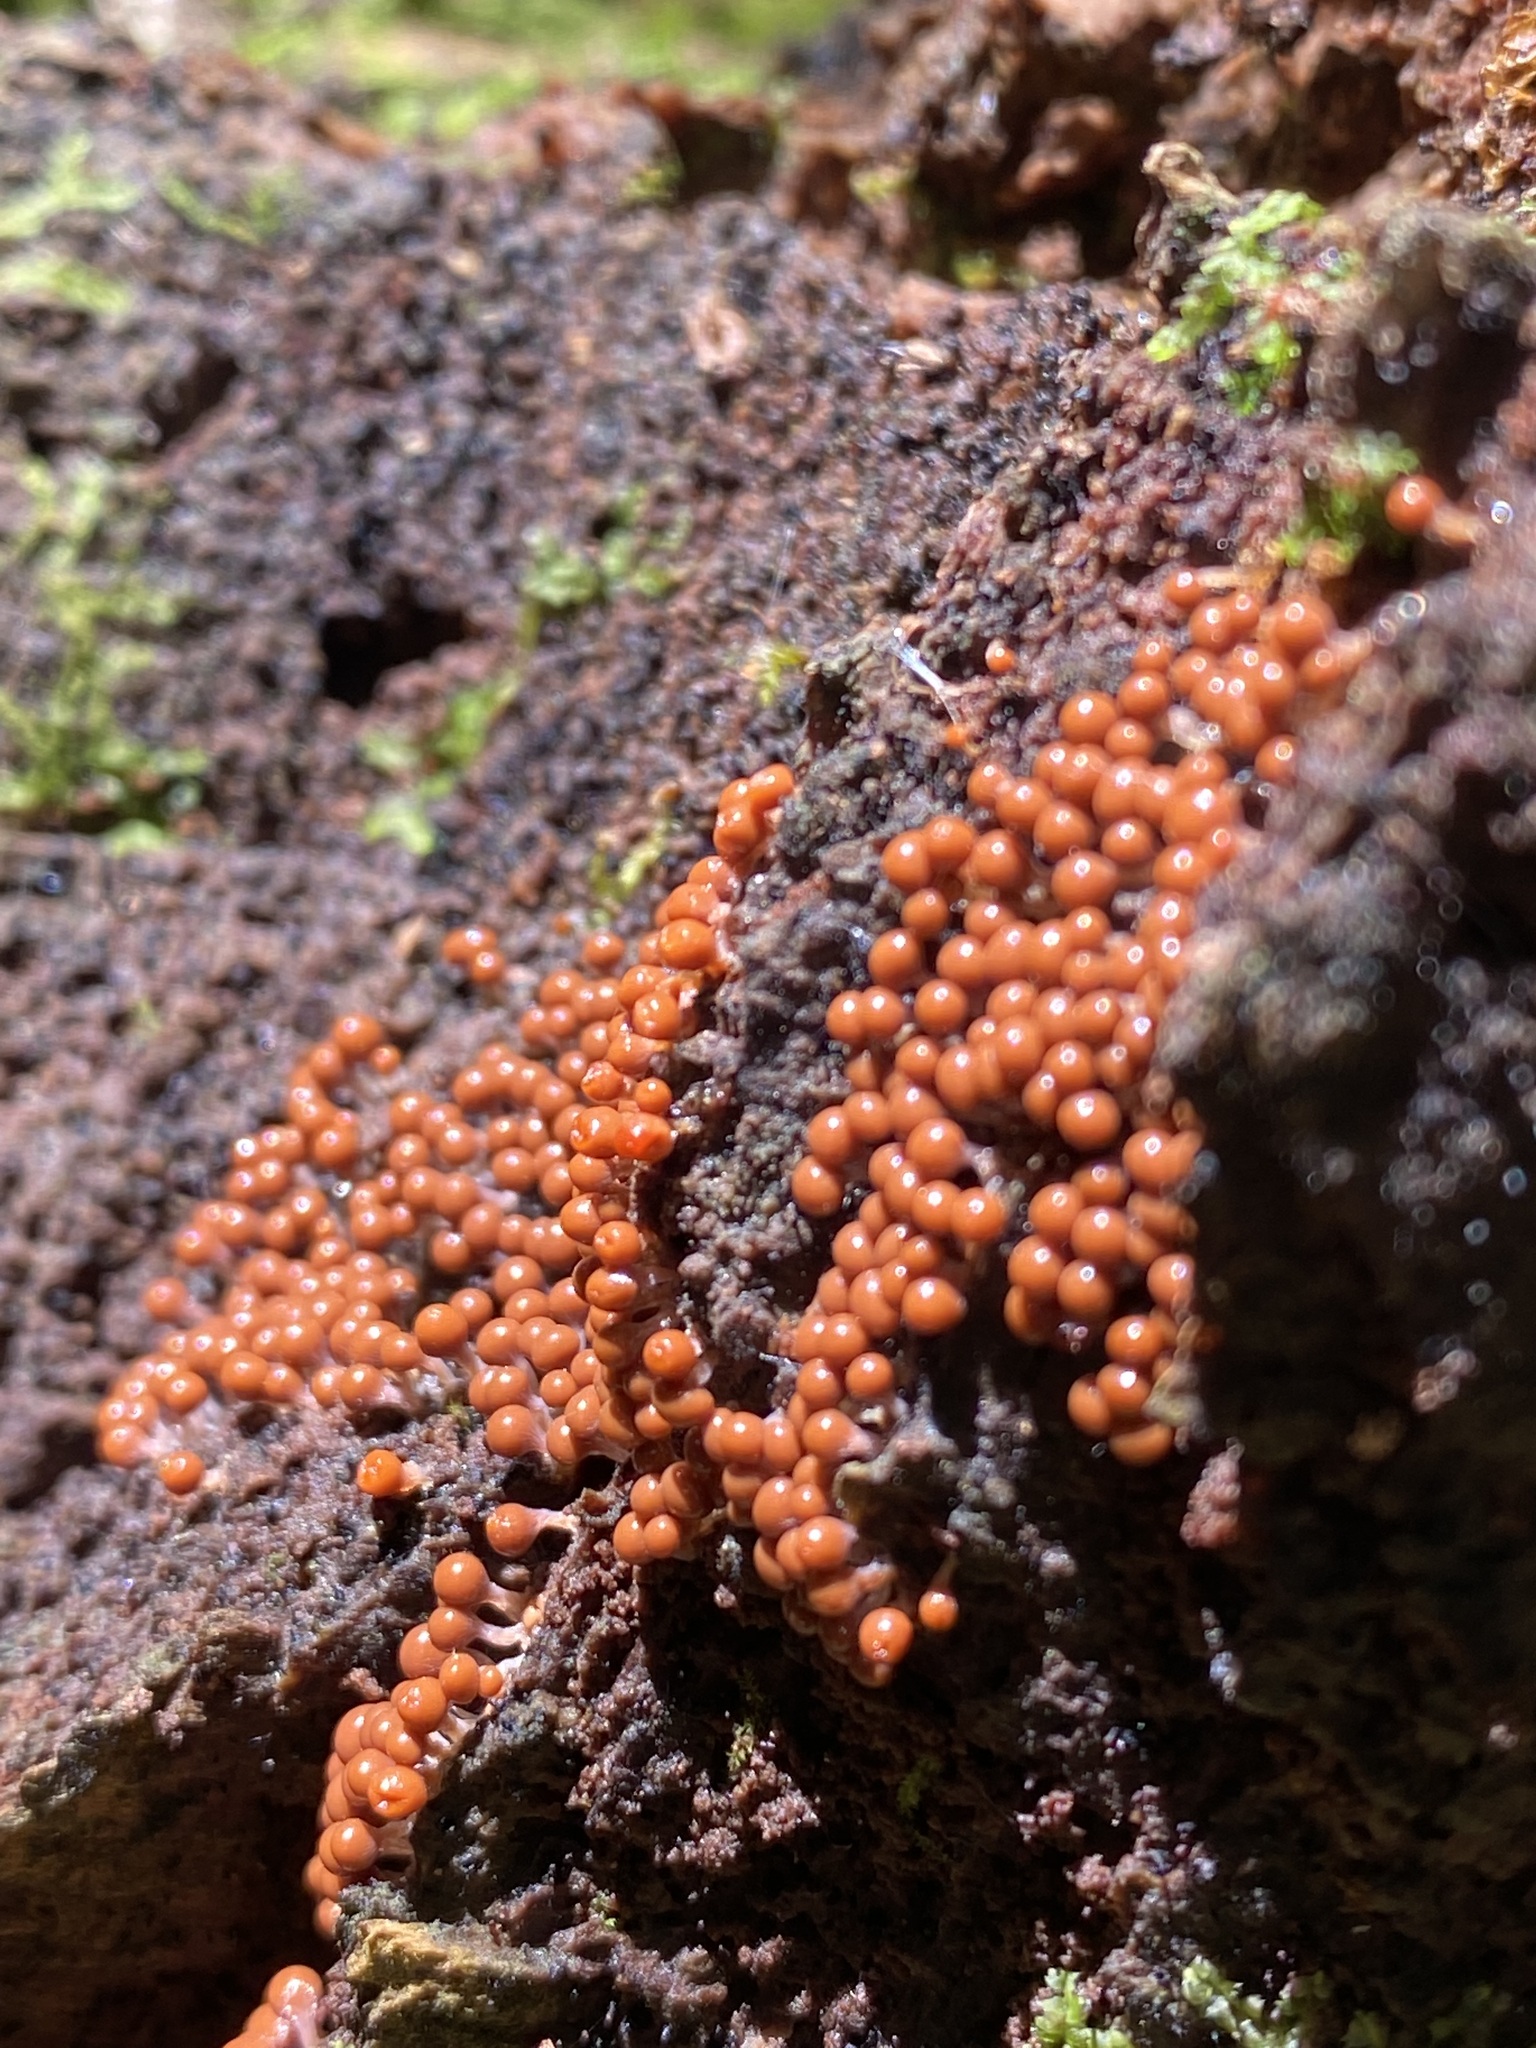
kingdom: Protozoa
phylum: Mycetozoa
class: Myxomycetes
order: Trichiales
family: Arcyriaceae
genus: Hemitrichia
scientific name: Hemitrichia decipiens
